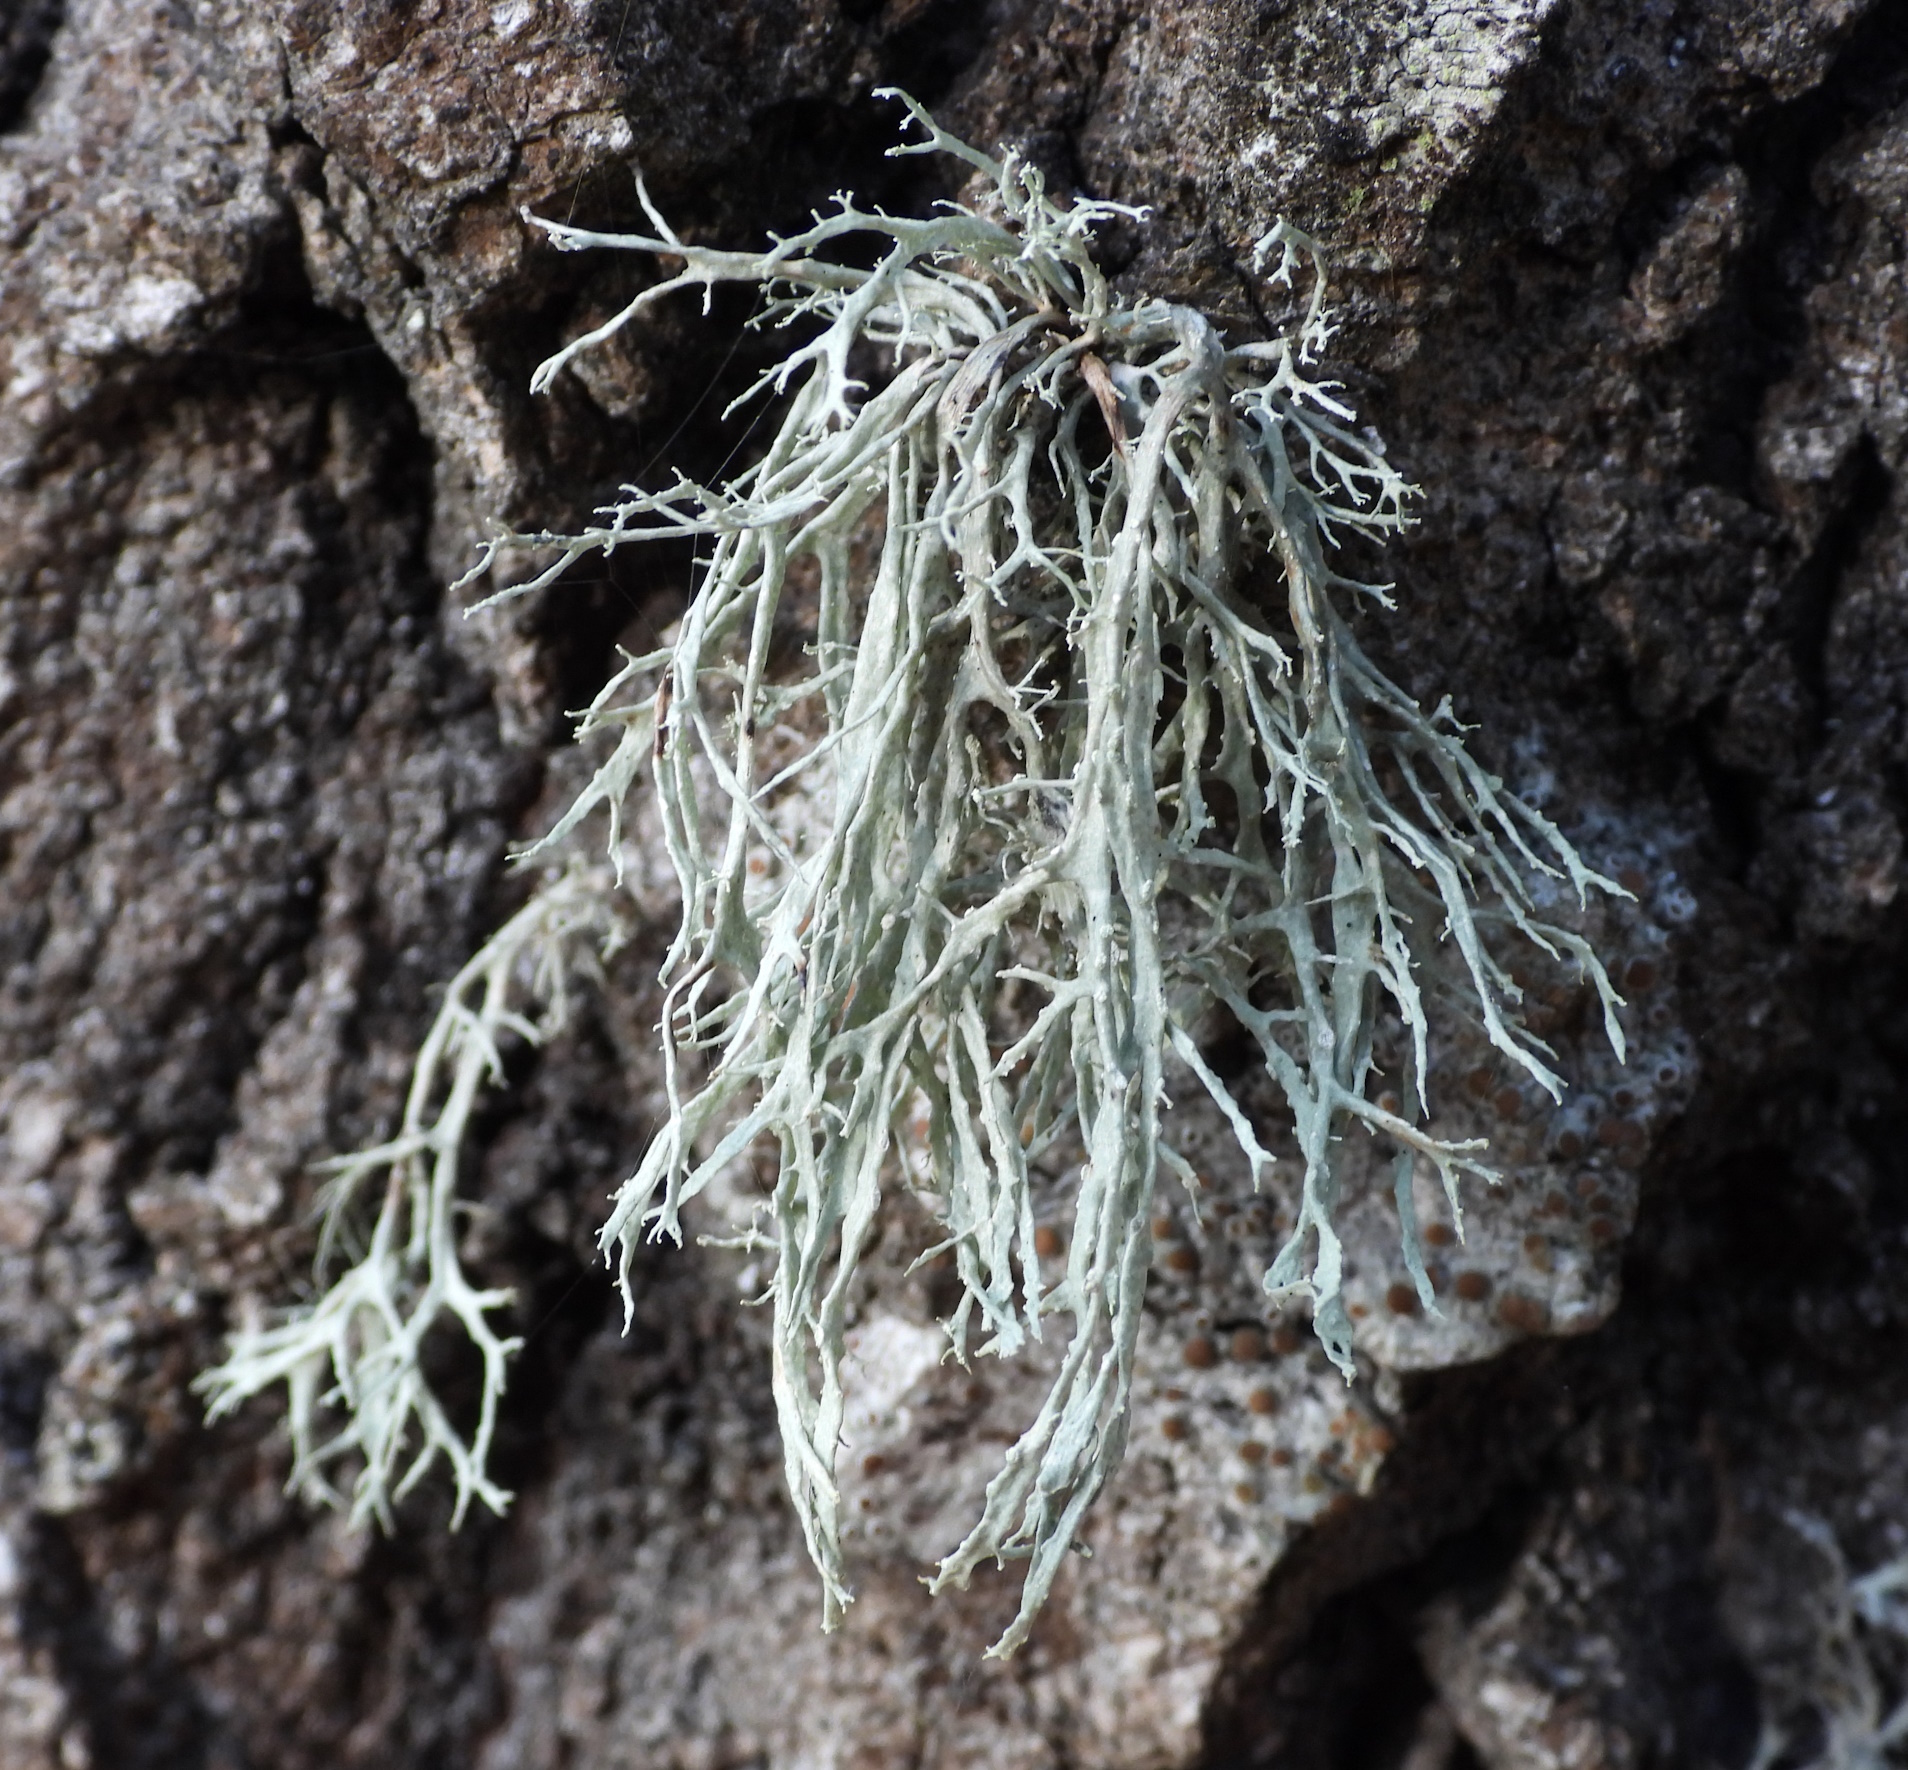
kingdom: Fungi
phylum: Ascomycota
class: Lecanoromycetes
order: Lecanorales
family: Ramalinaceae
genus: Ramalina
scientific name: Ramalina farinacea
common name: Farinose cartilage lichen
